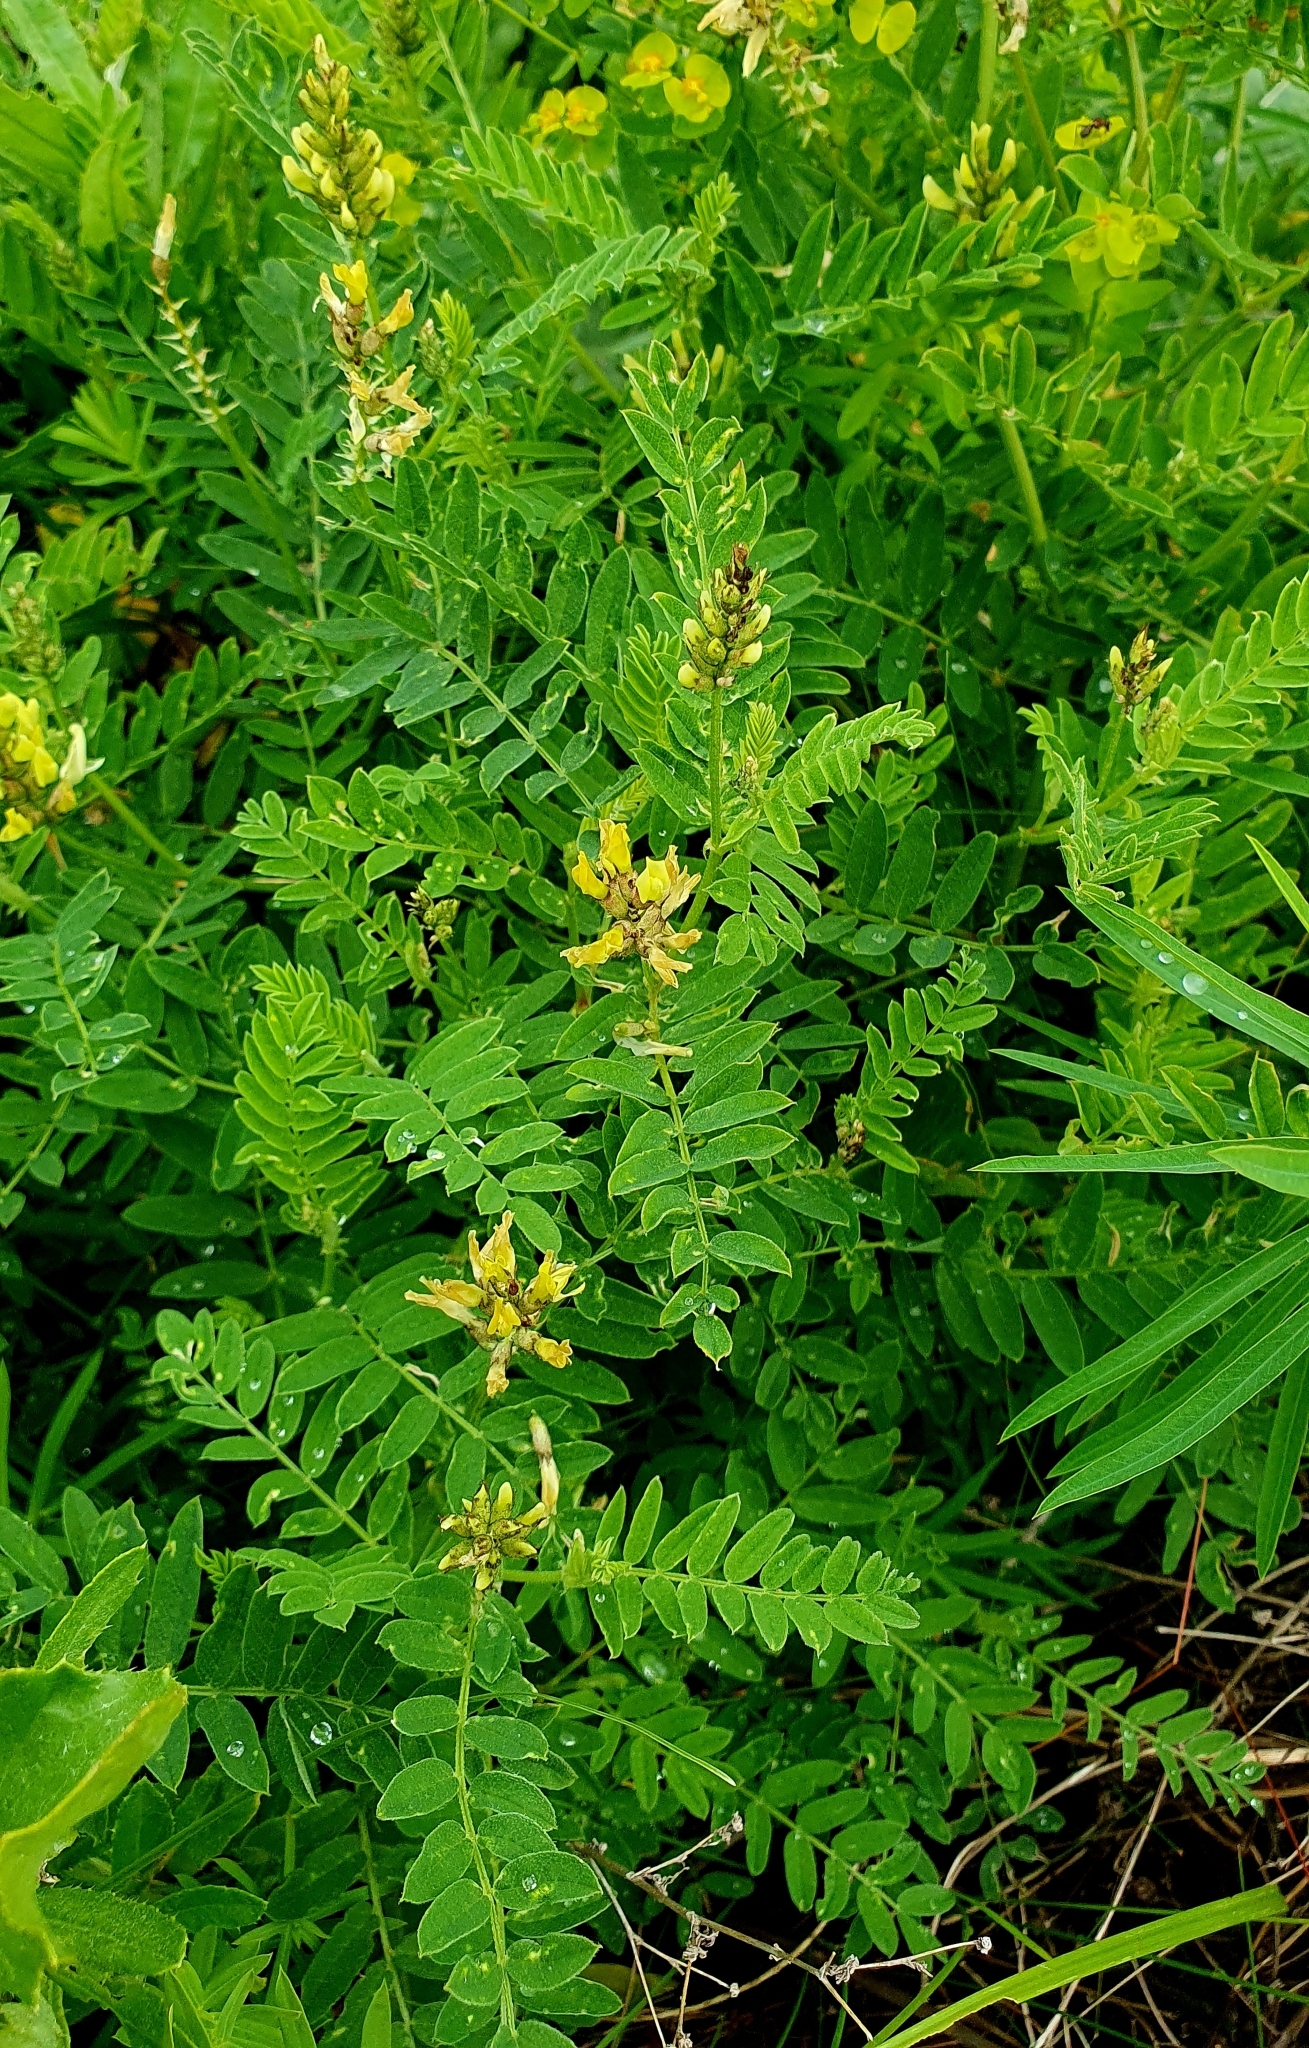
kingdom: Plantae
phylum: Tracheophyta
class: Magnoliopsida
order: Fabales
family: Fabaceae
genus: Astragalus
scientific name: Astragalus cicer
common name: Chick-pea milk-vetch
